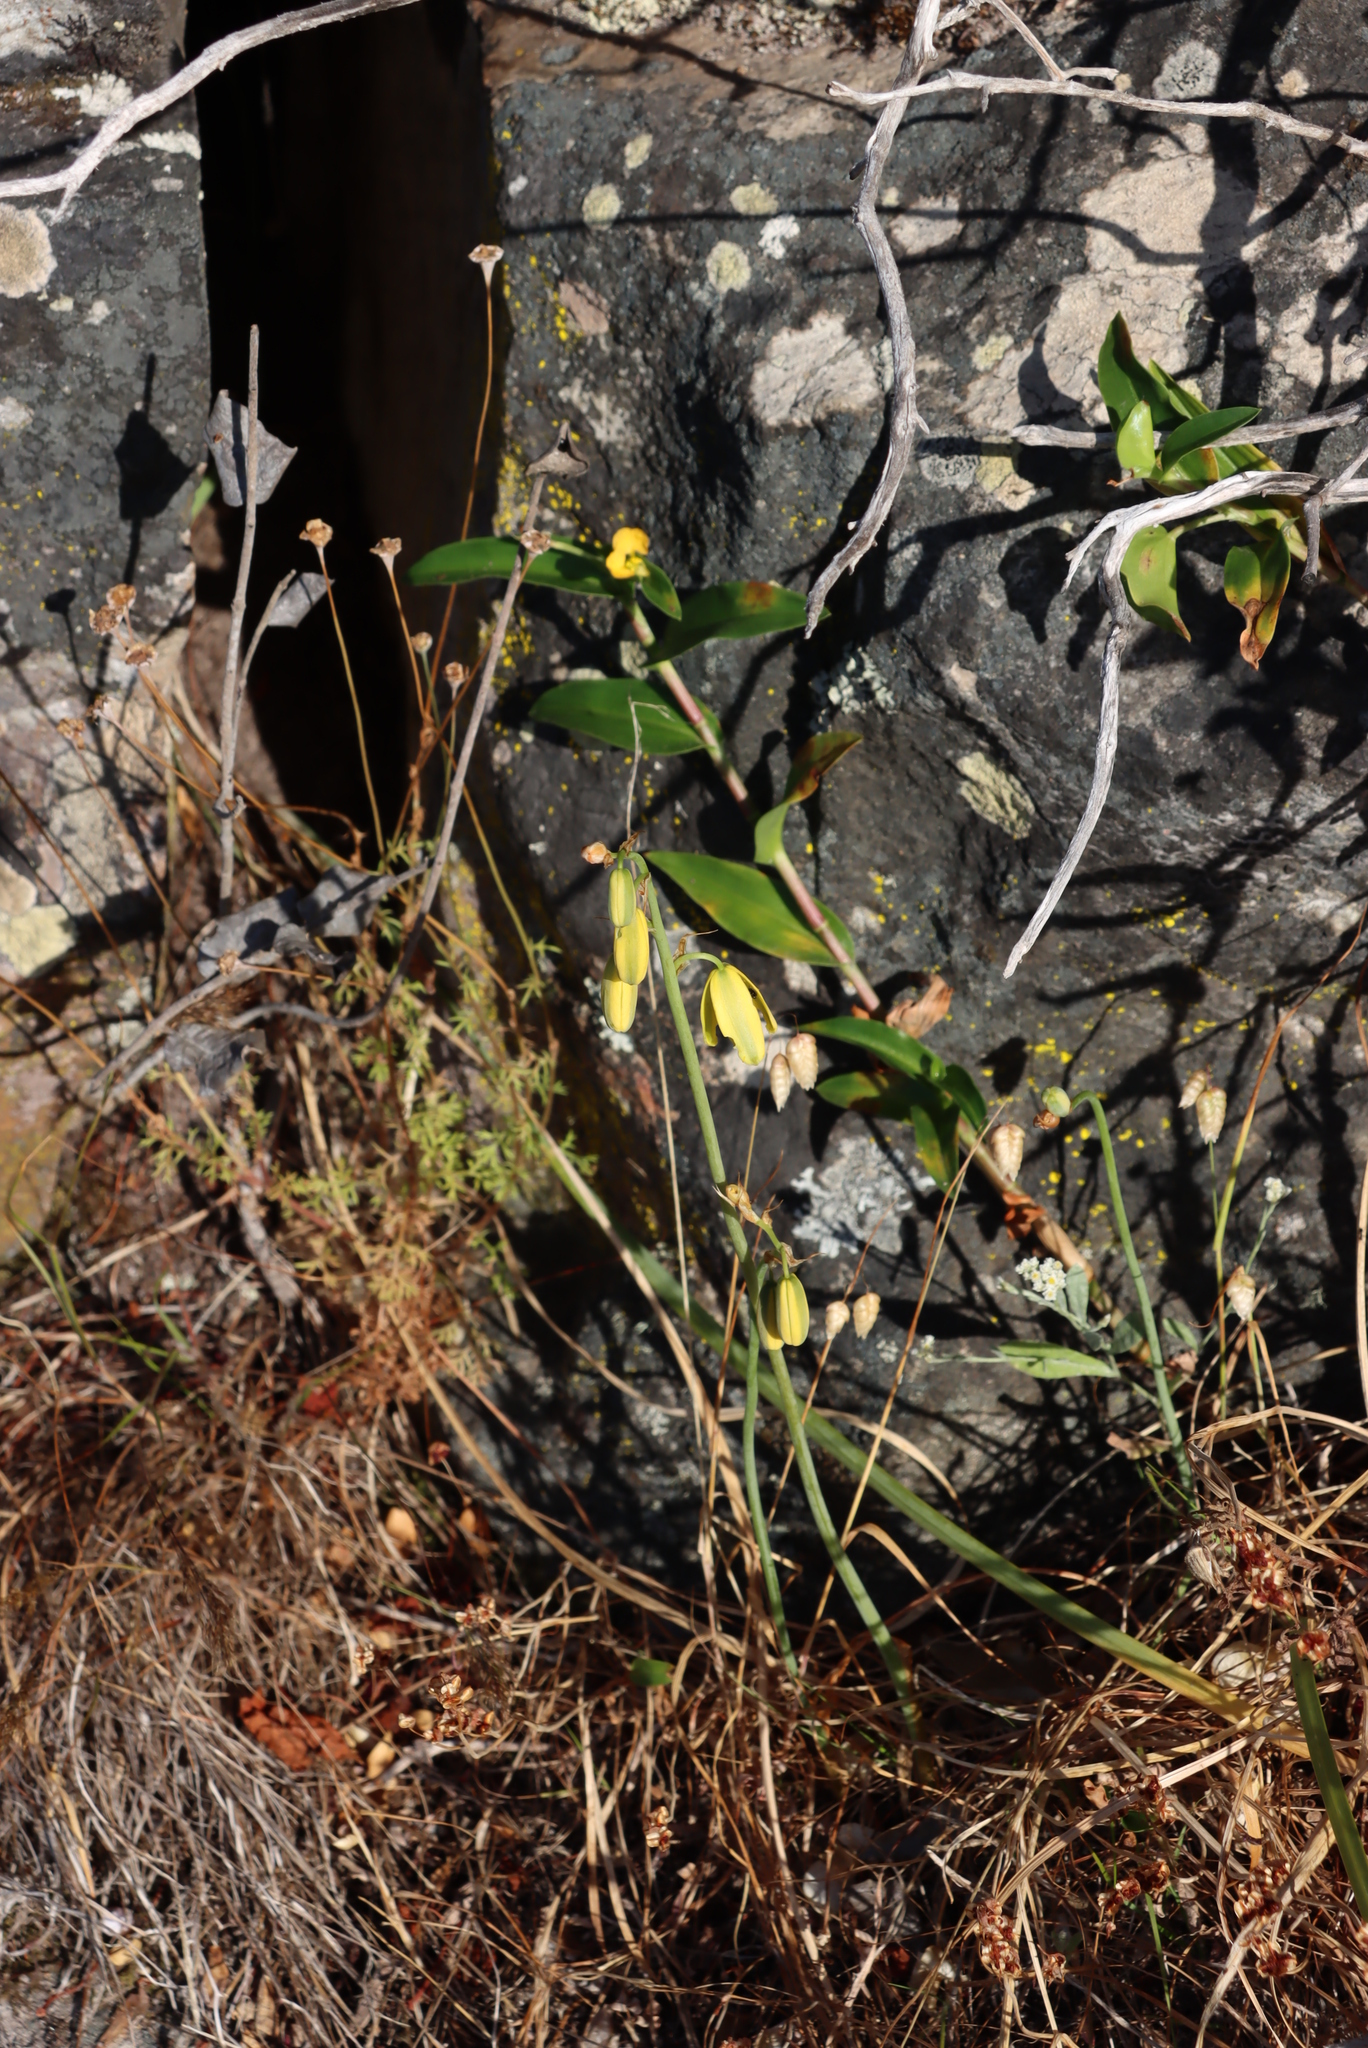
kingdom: Plantae
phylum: Tracheophyta
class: Liliopsida
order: Commelinales
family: Commelinaceae
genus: Commelina
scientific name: Commelina africana
